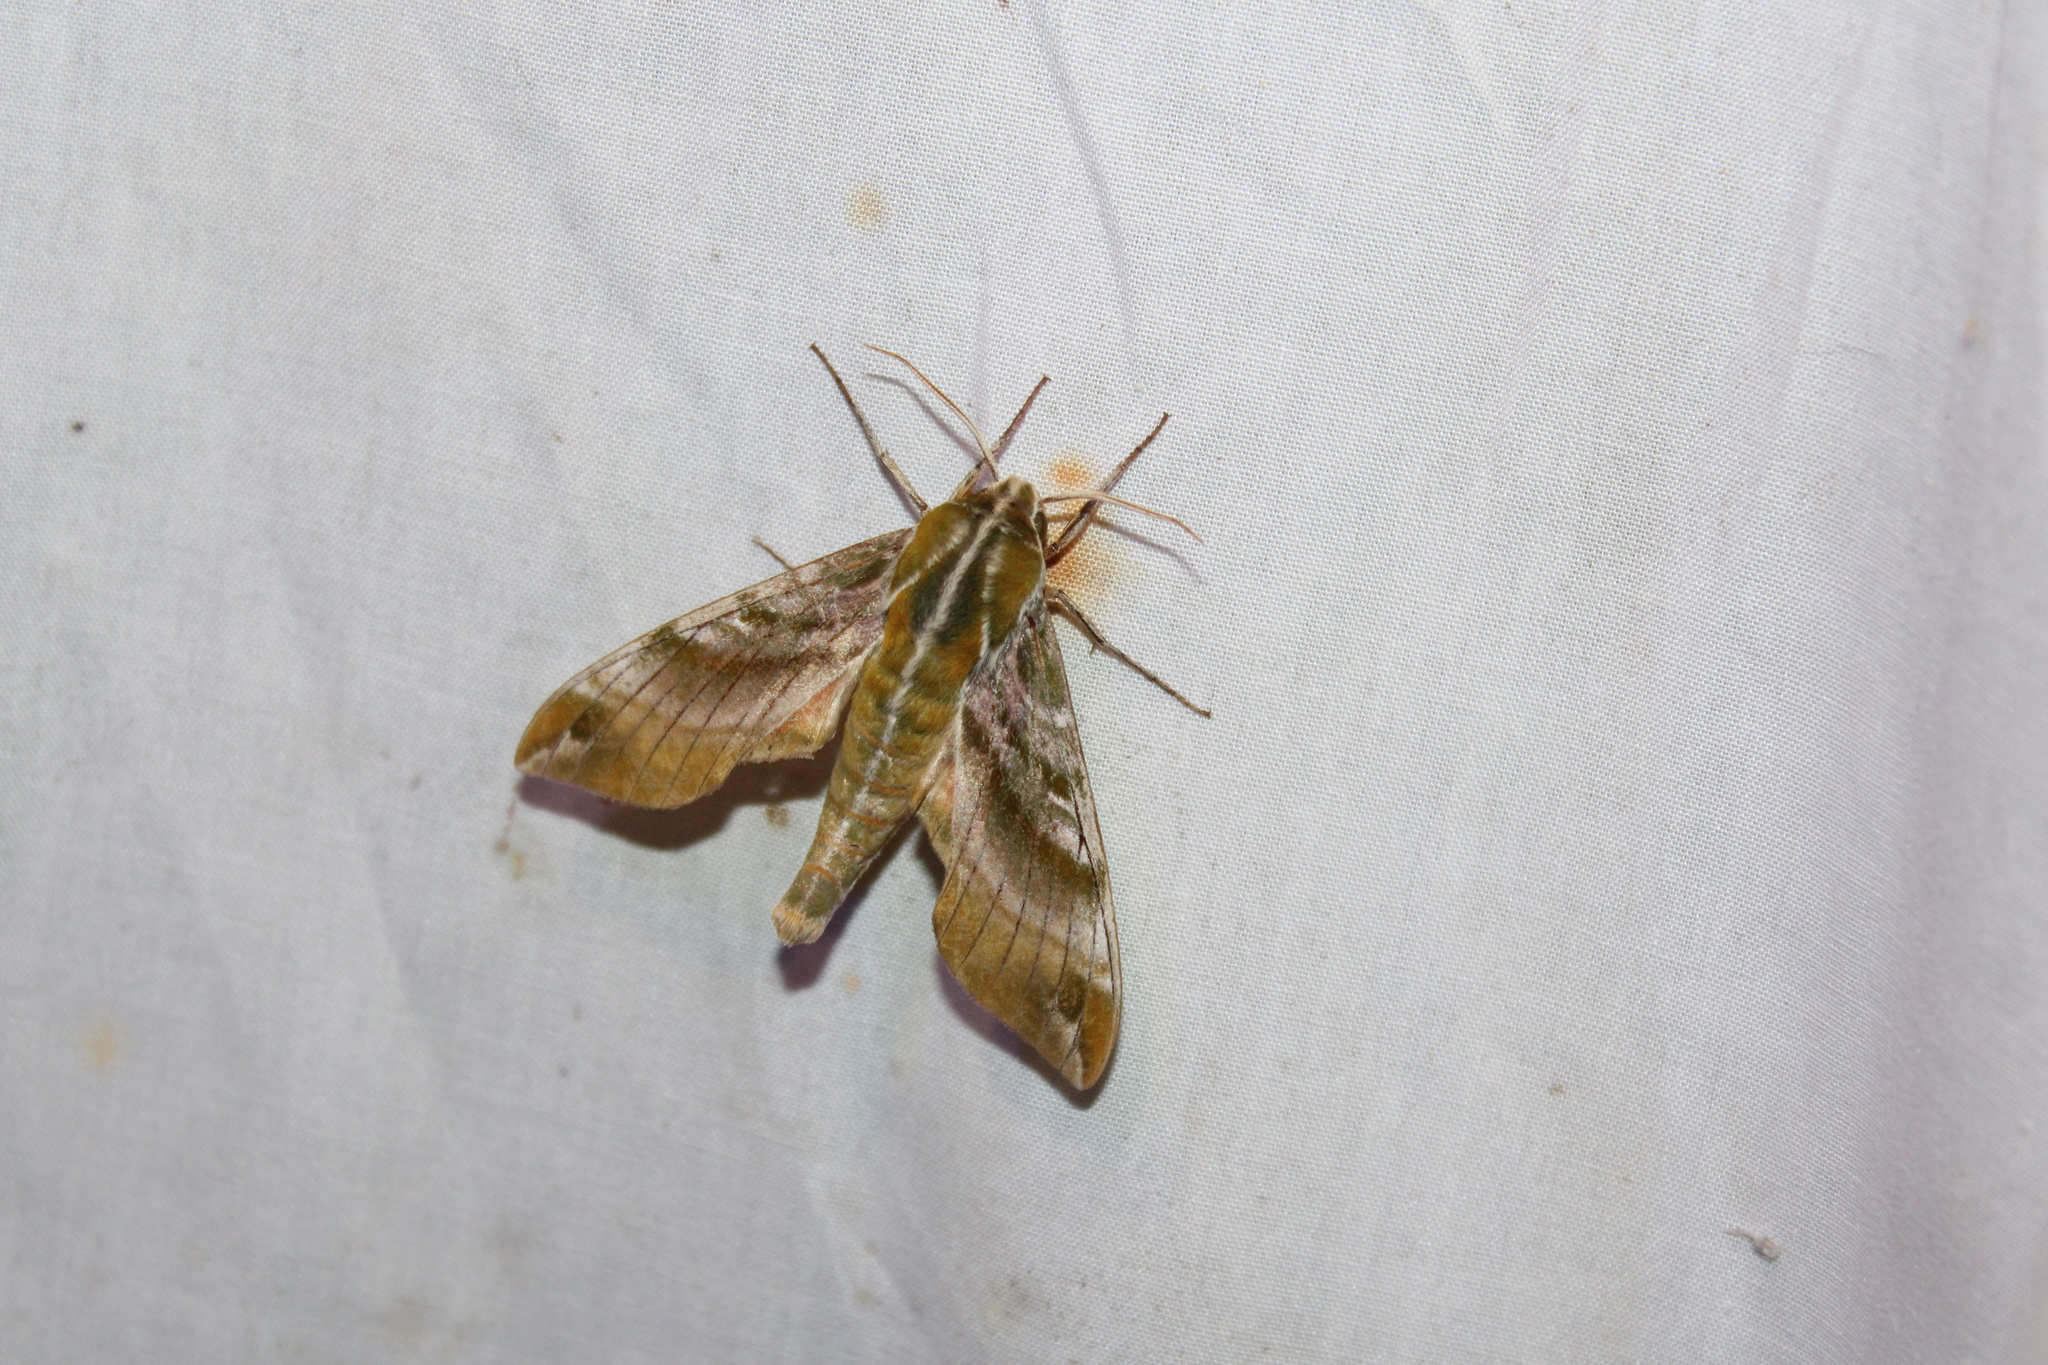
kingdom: Animalia
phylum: Arthropoda
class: Insecta
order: Lepidoptera
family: Sphingidae
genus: Darapsa
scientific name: Darapsa versicolor
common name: Hydrangea sphinx
